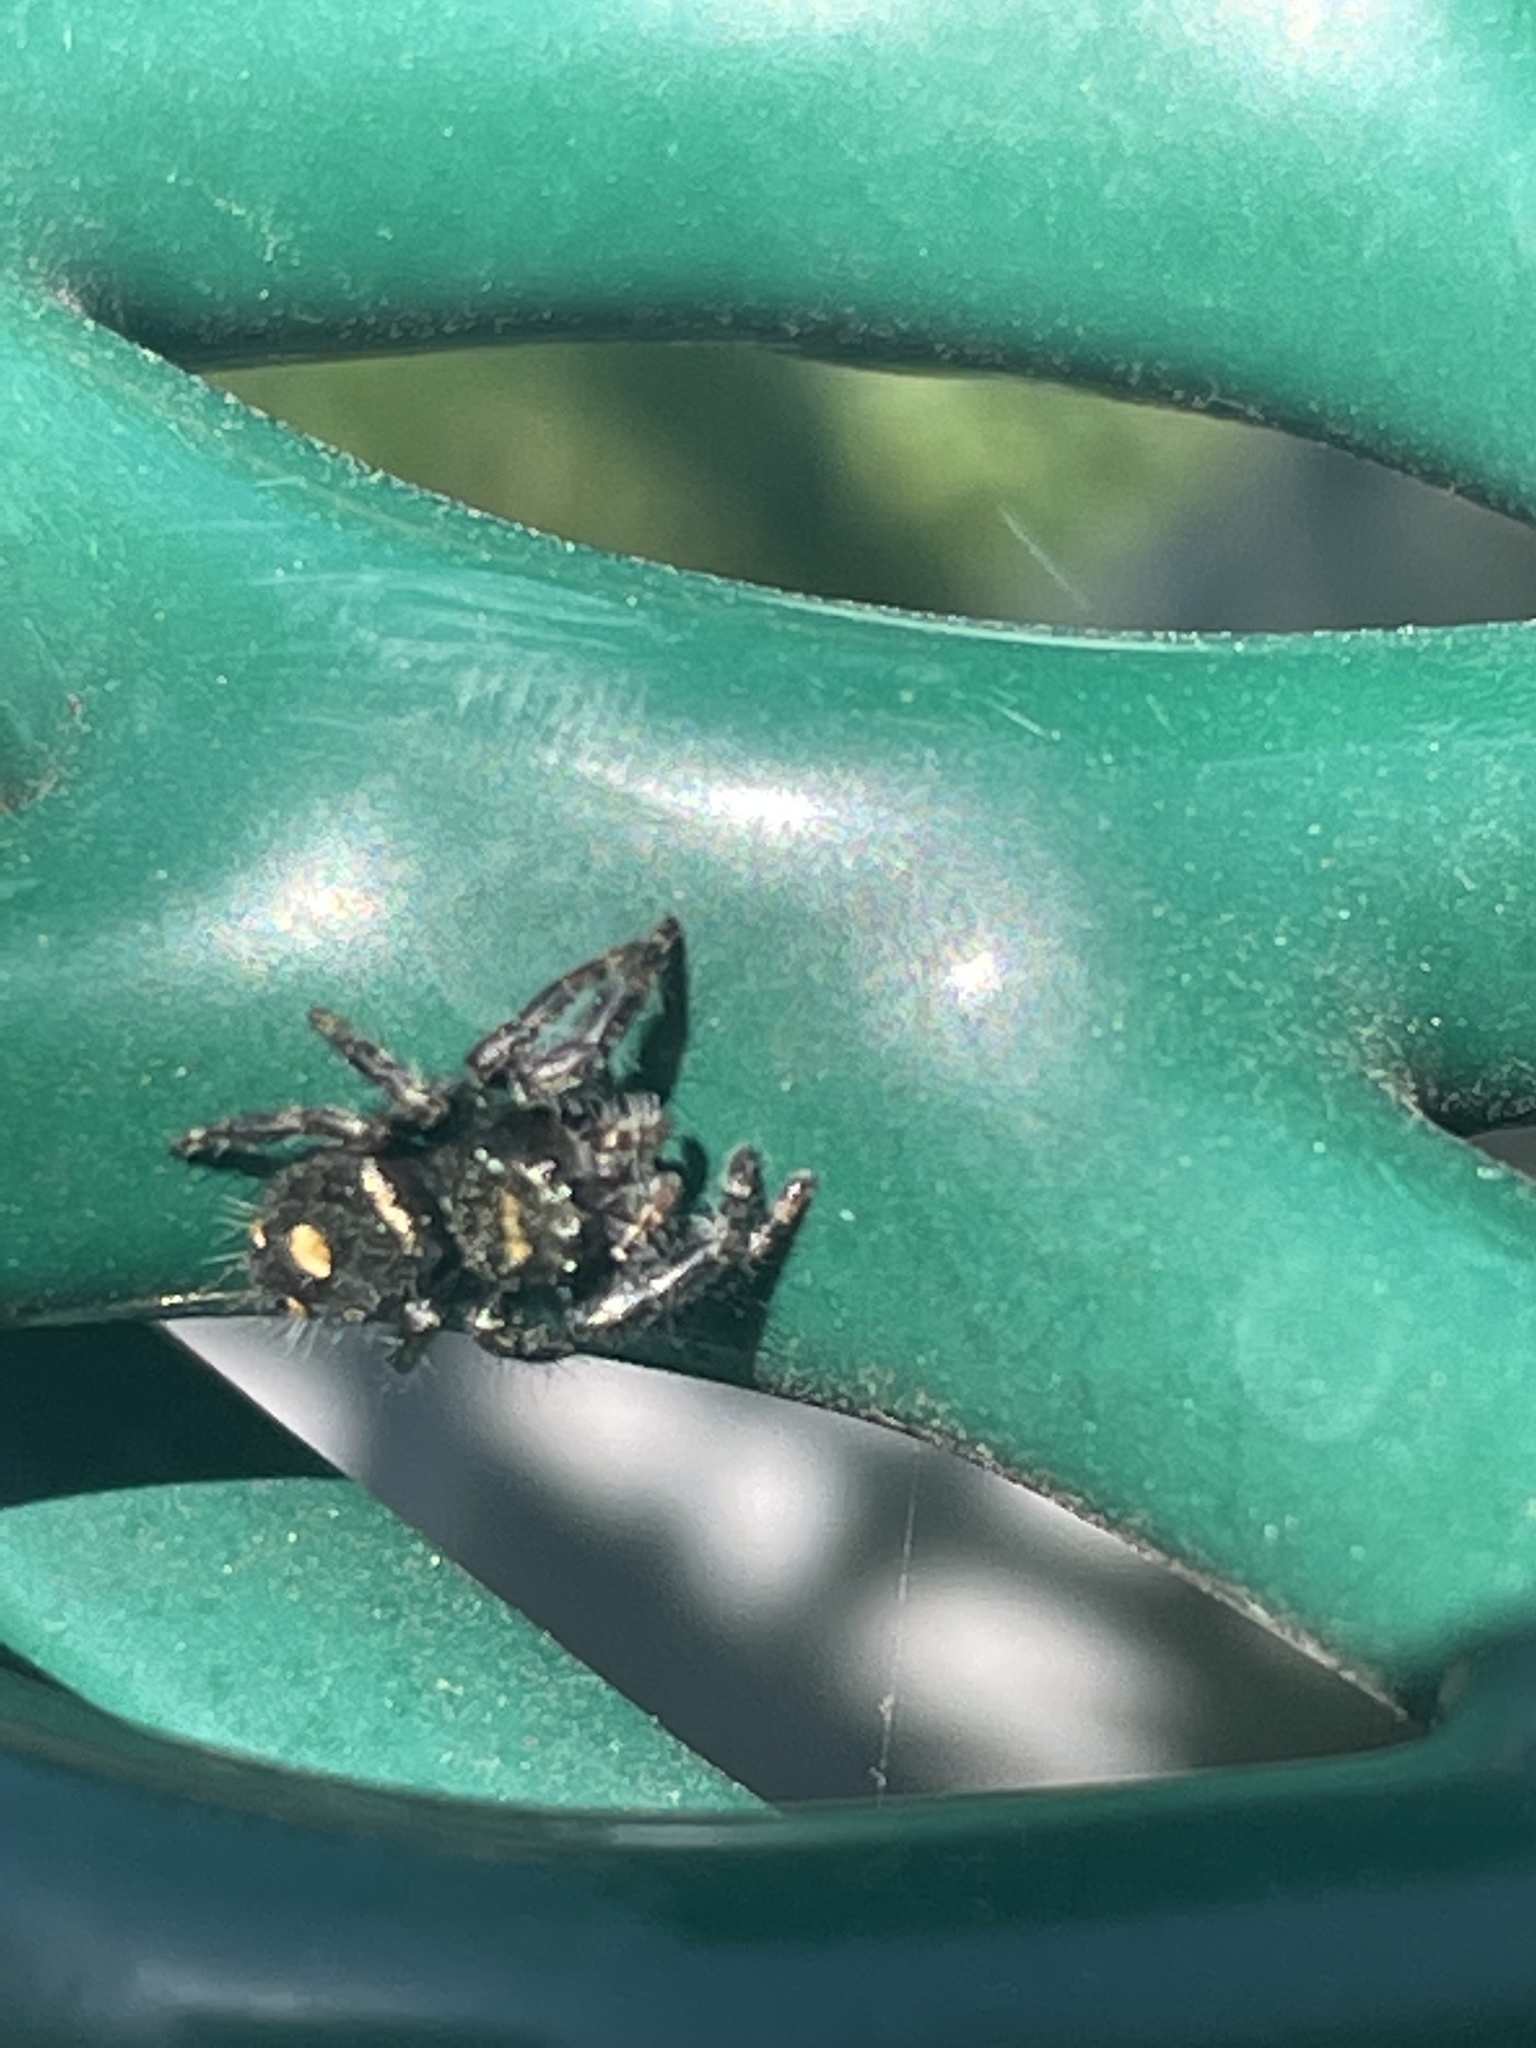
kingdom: Animalia
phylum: Arthropoda
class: Arachnida
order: Araneae
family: Salticidae
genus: Phidippus
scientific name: Phidippus audax
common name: Bold jumper
